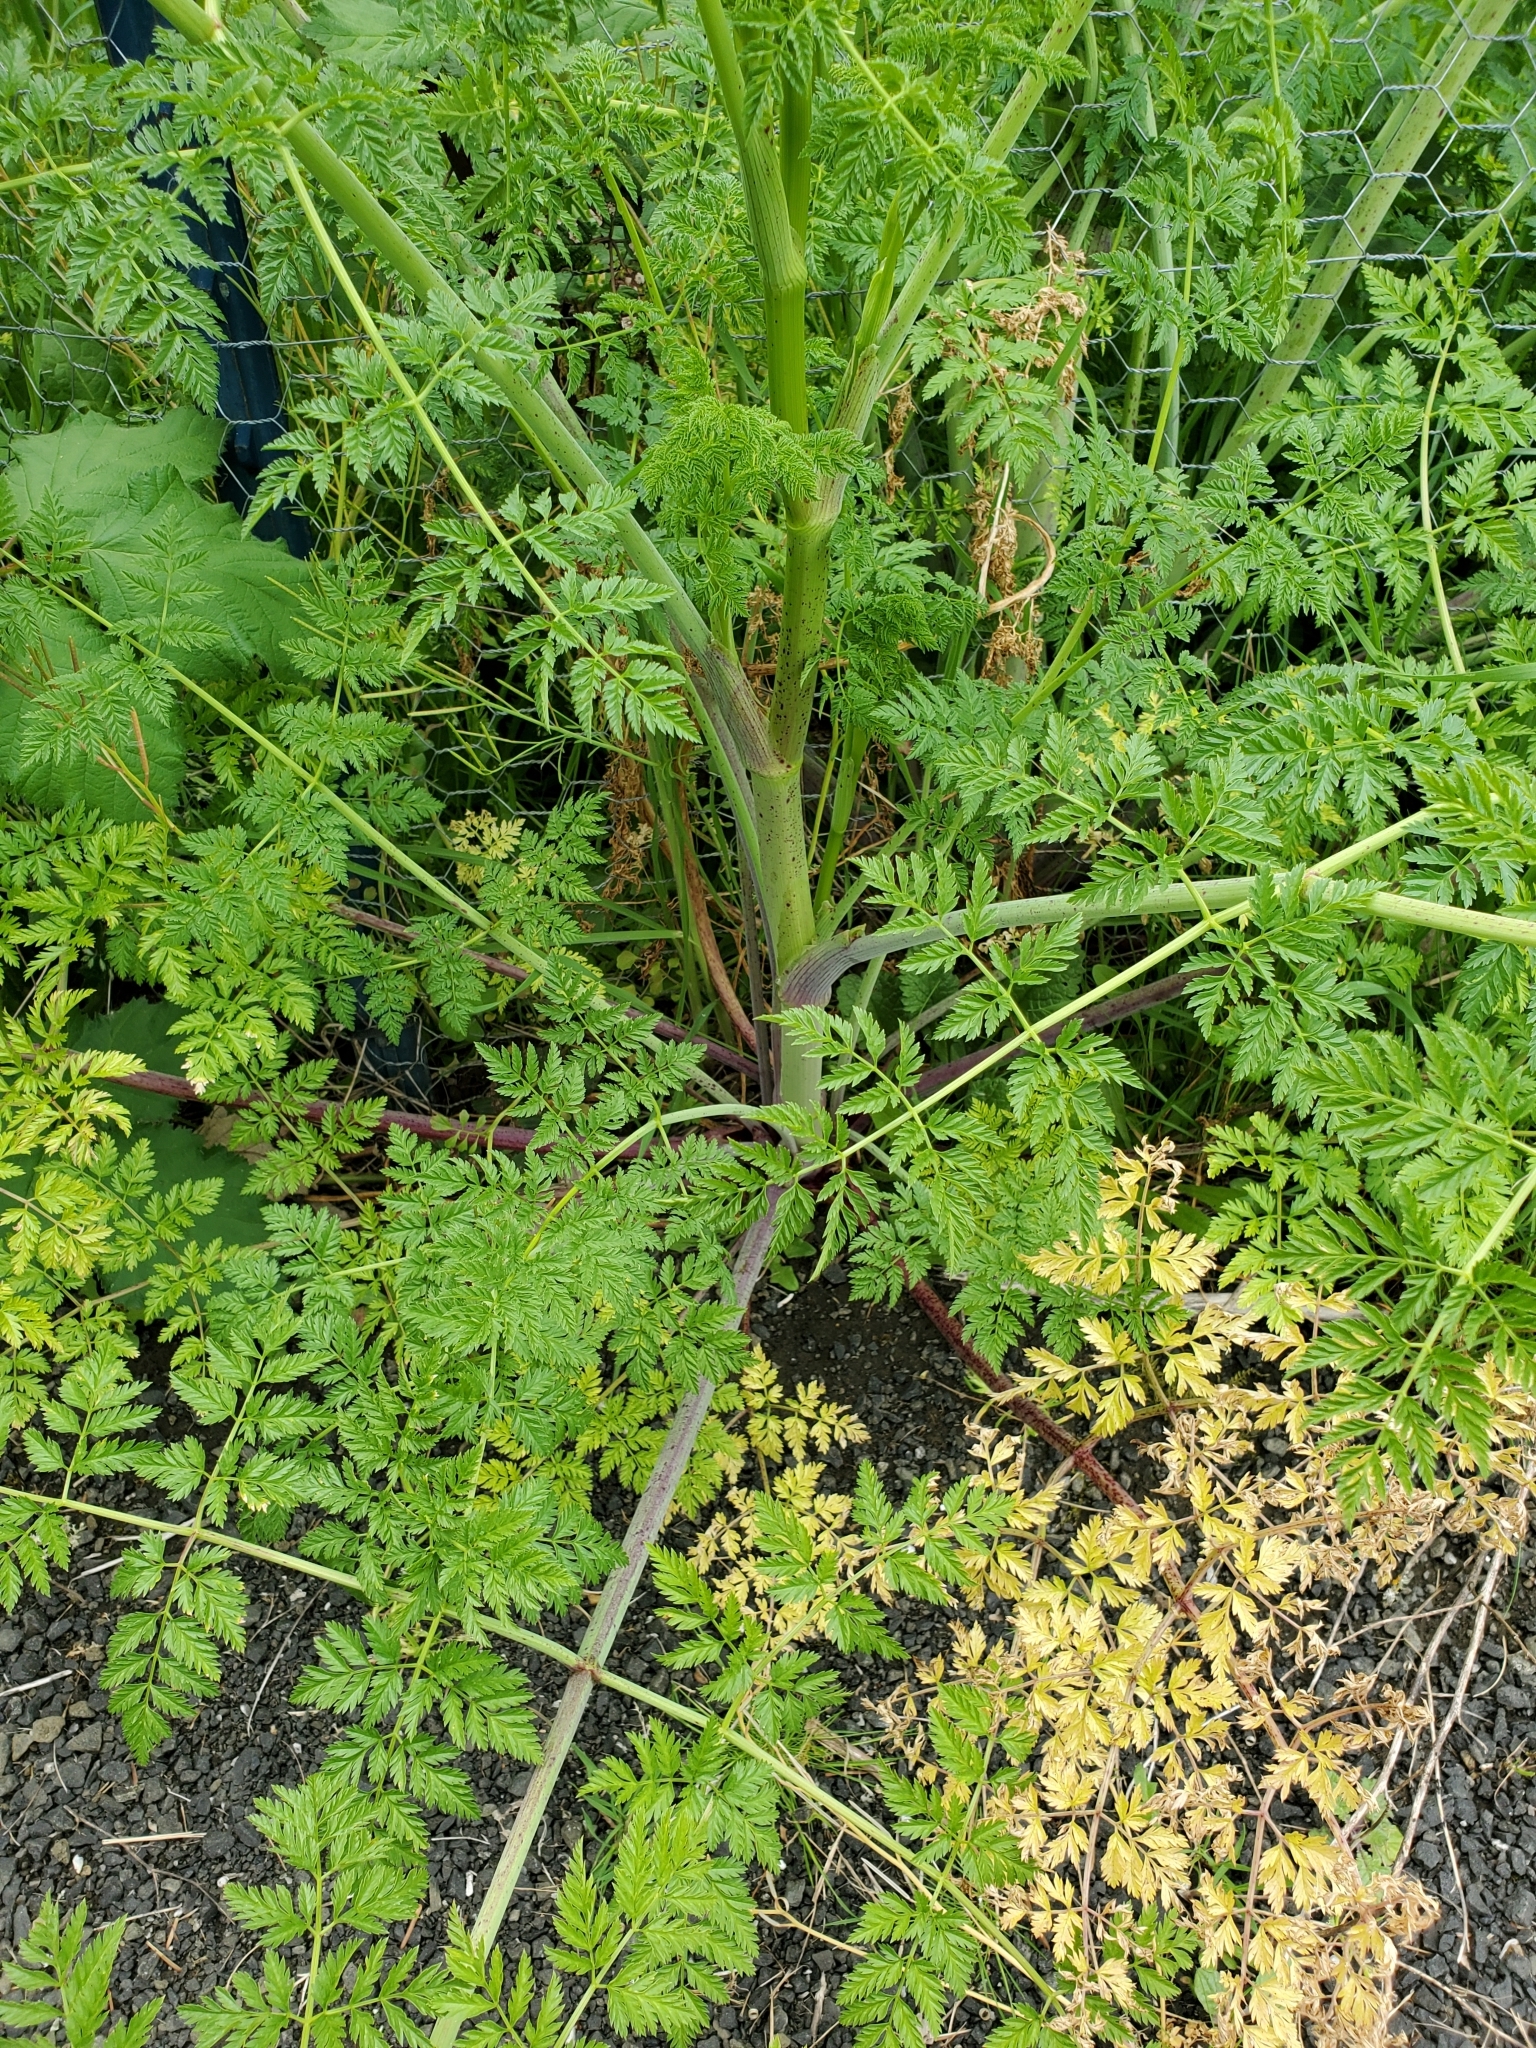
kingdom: Plantae
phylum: Tracheophyta
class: Magnoliopsida
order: Apiales
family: Apiaceae
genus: Conium
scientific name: Conium maculatum
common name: Hemlock
